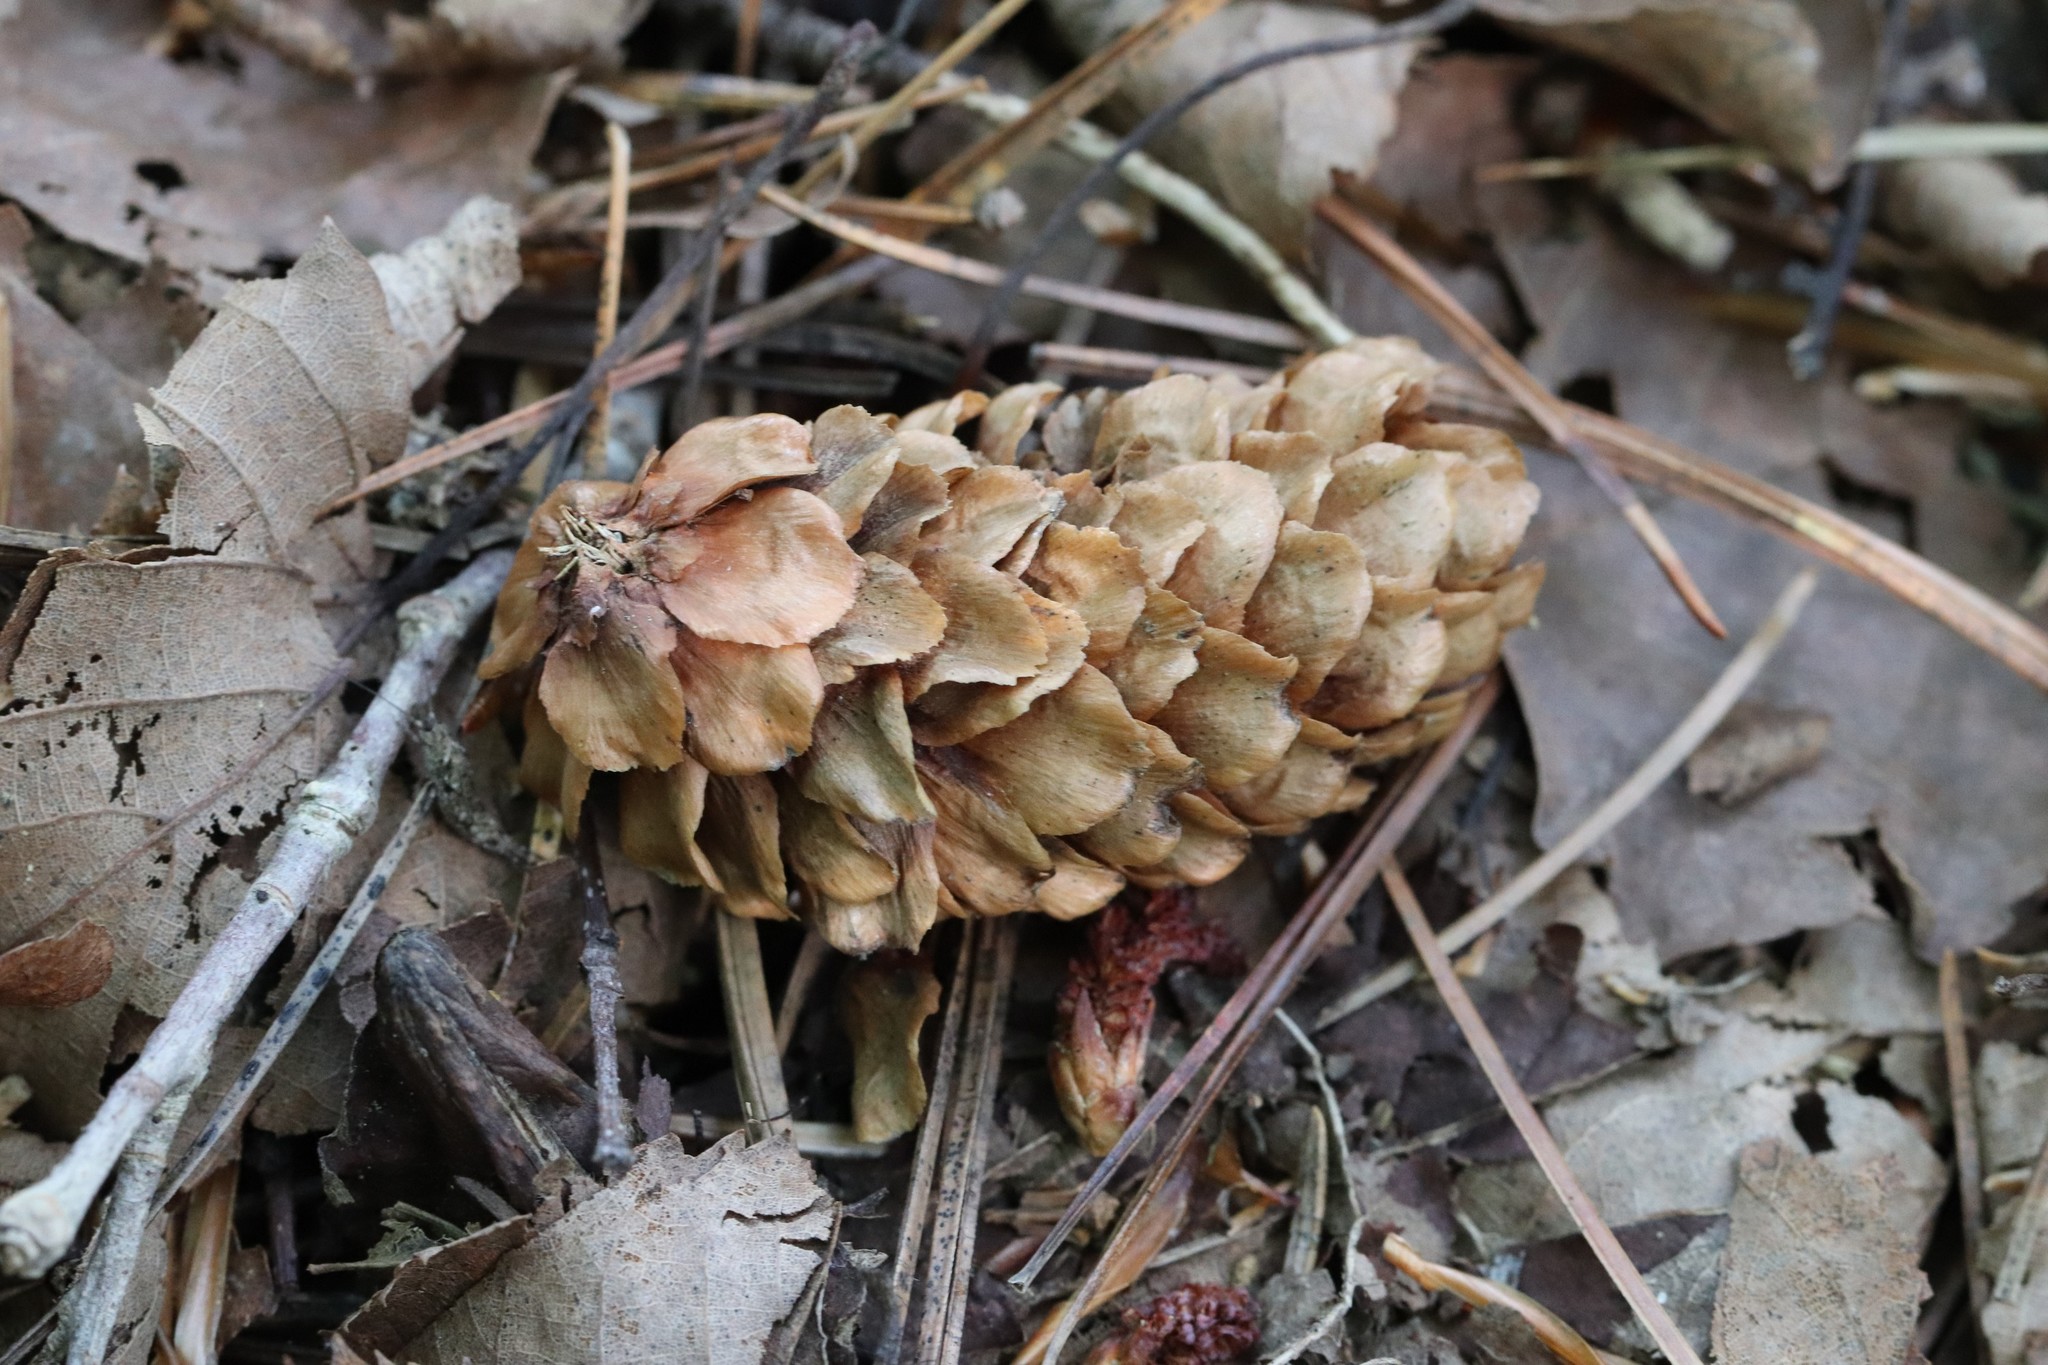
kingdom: Plantae
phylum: Tracheophyta
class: Pinopsida
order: Pinales
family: Pinaceae
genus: Picea
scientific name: Picea jezoensis
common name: Yeddo spruce
